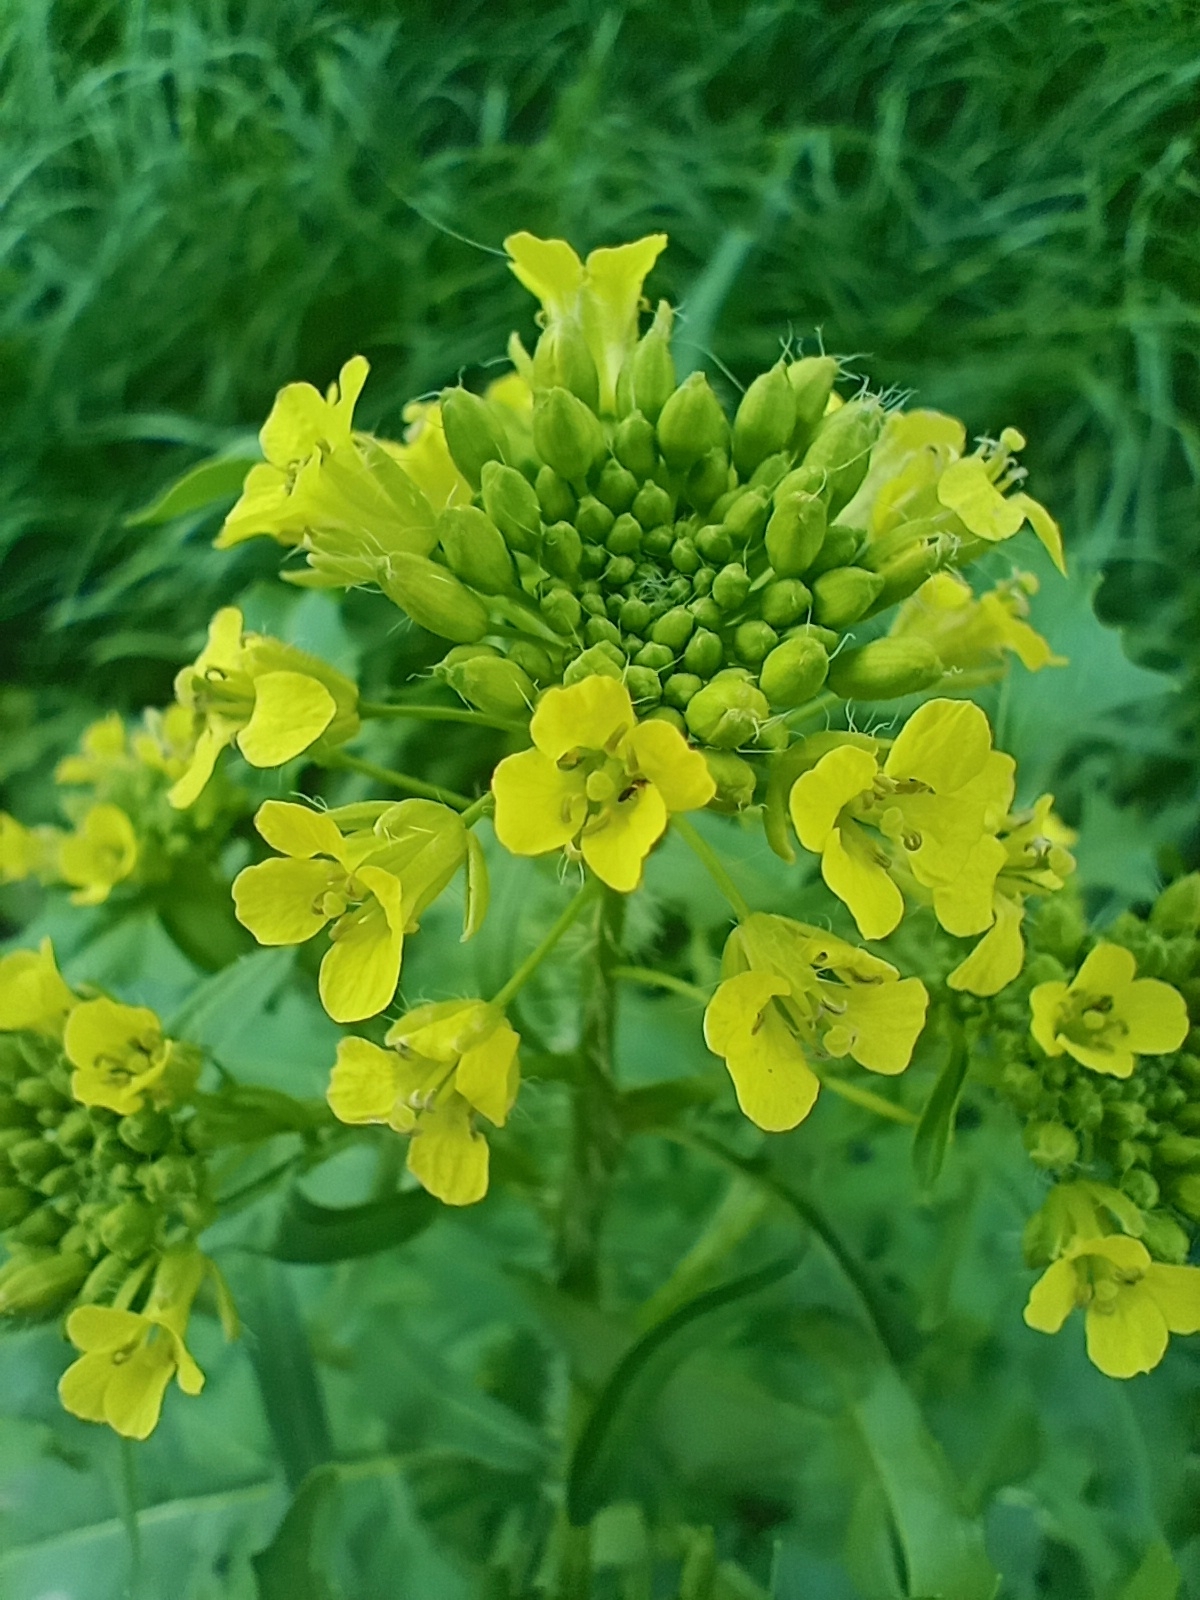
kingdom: Plantae
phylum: Tracheophyta
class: Magnoliopsida
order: Brassicales
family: Brassicaceae
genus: Sisymbrium
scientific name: Sisymbrium loeselii
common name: False london-rocket
